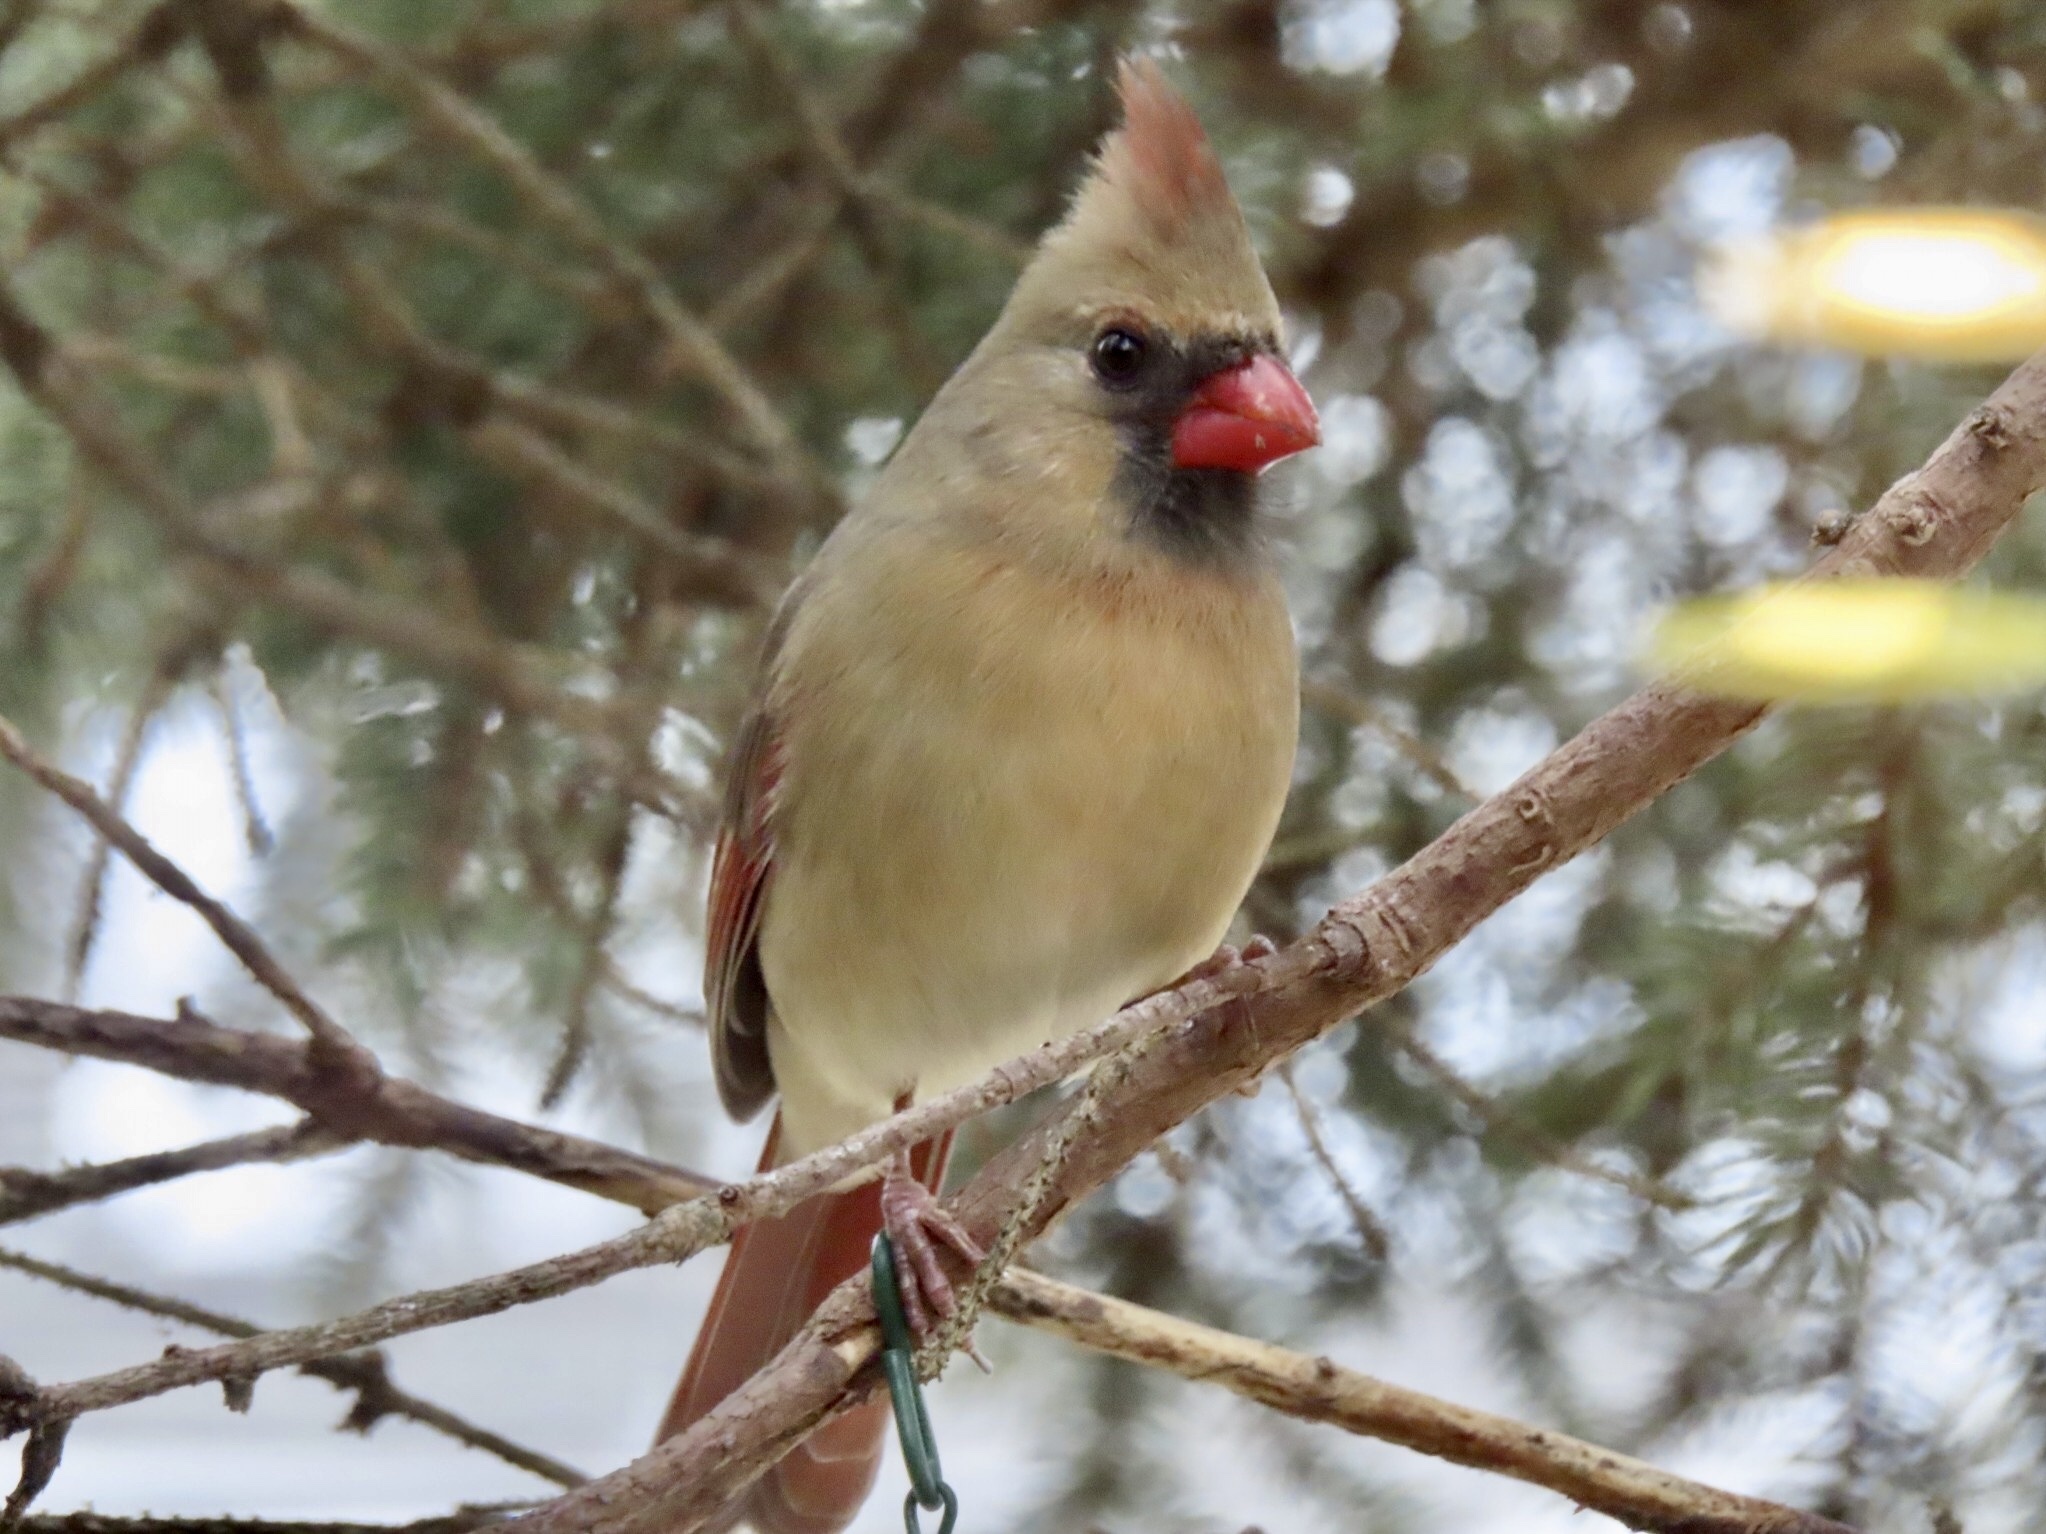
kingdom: Animalia
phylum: Chordata
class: Aves
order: Passeriformes
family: Cardinalidae
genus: Cardinalis
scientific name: Cardinalis cardinalis
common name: Northern cardinal
